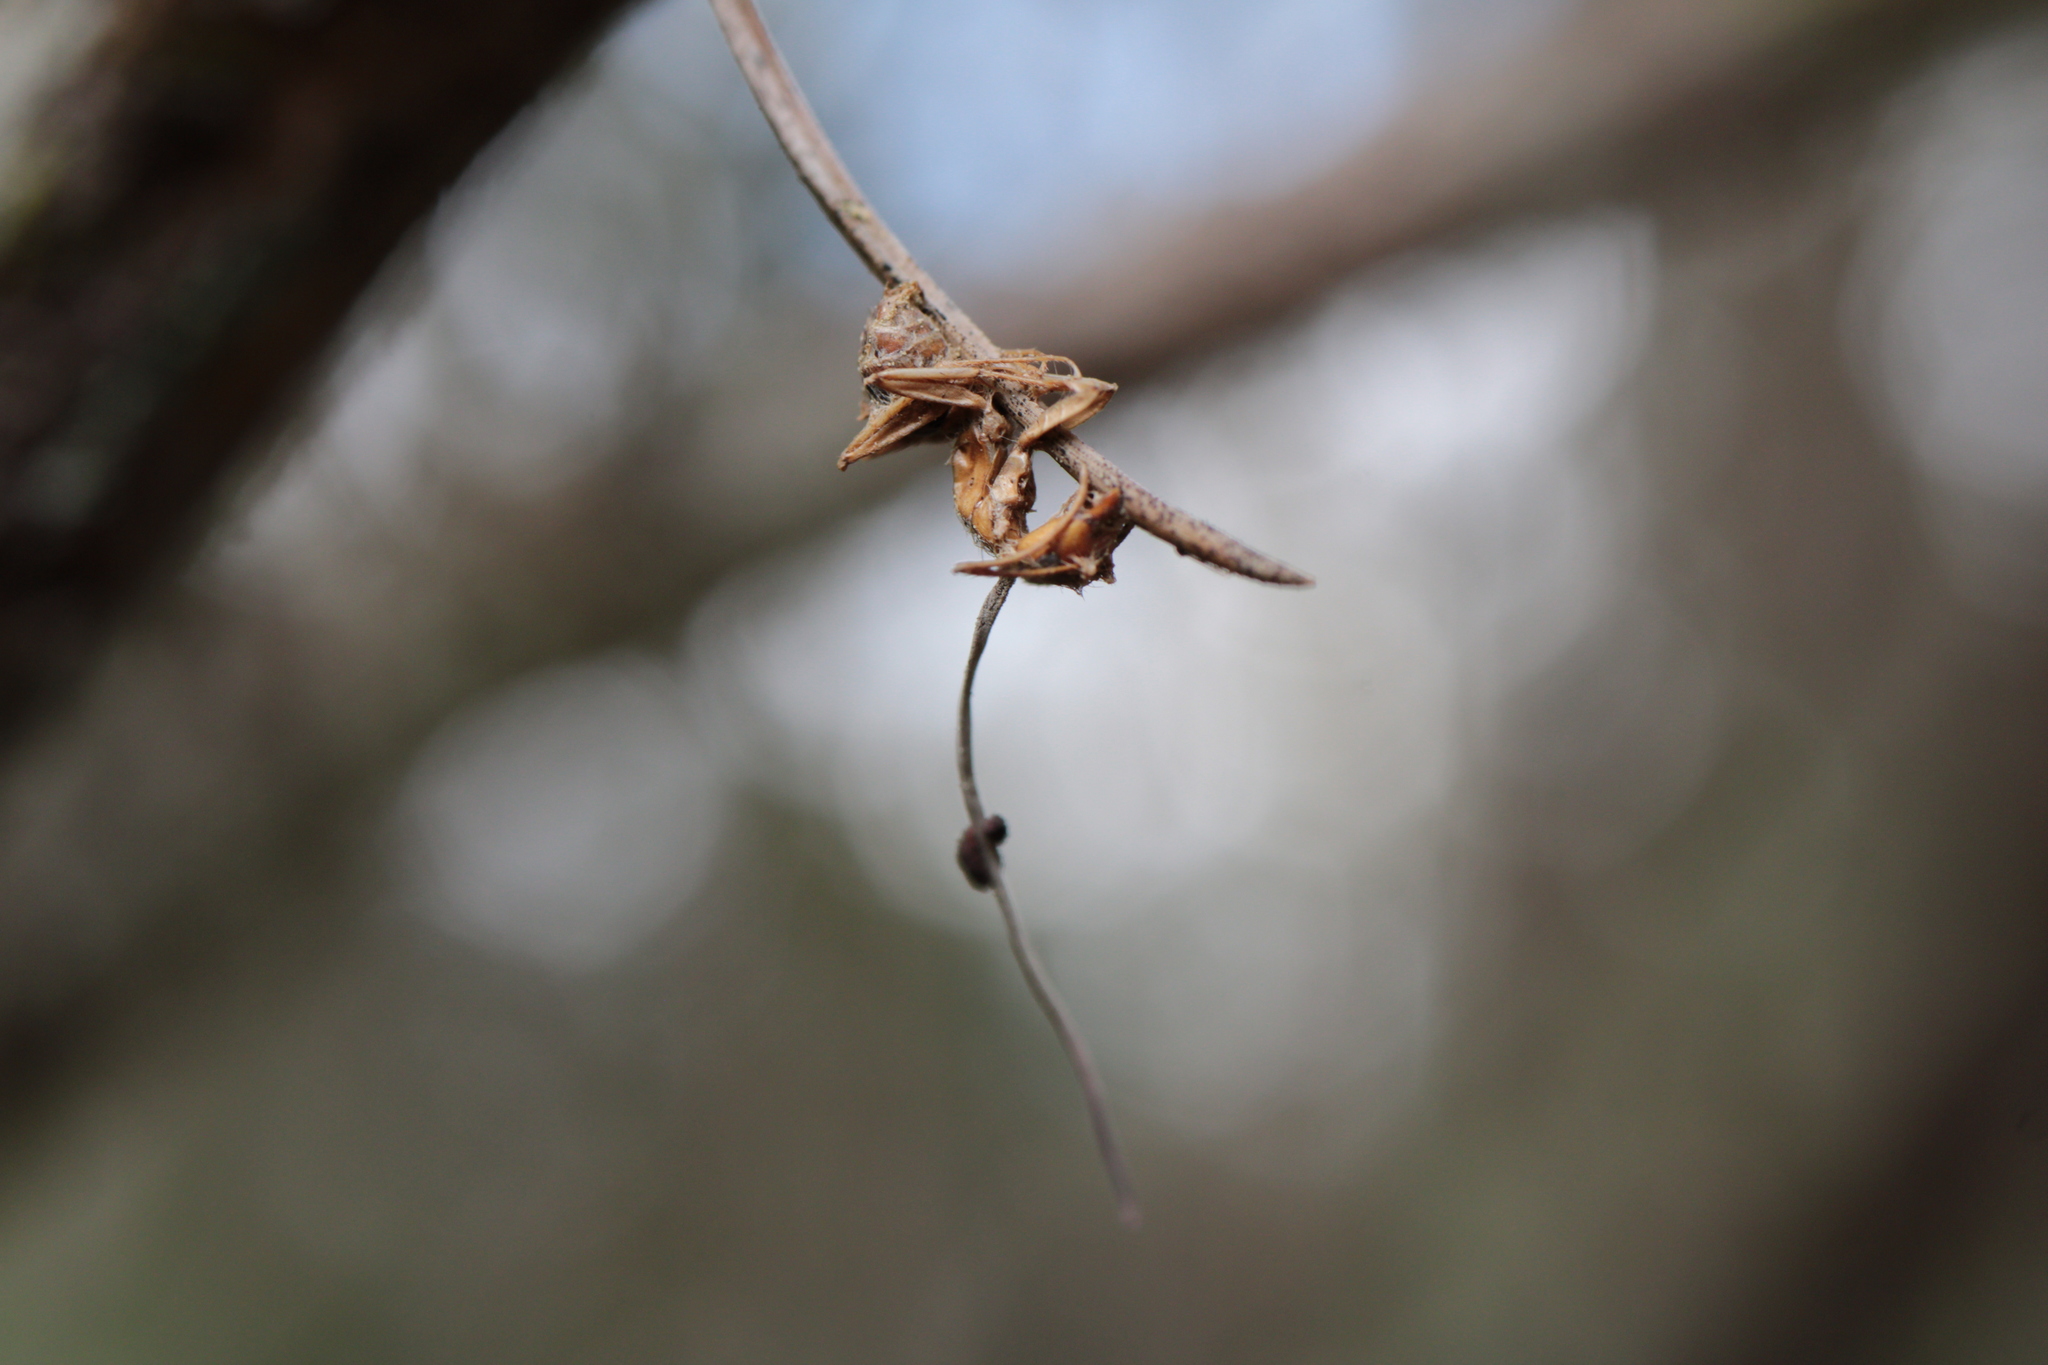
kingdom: Fungi
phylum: Ascomycota
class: Sordariomycetes
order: Hypocreales
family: Ophiocordycipitaceae
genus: Ophiocordyceps
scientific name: Ophiocordyceps camponoti-floridani
